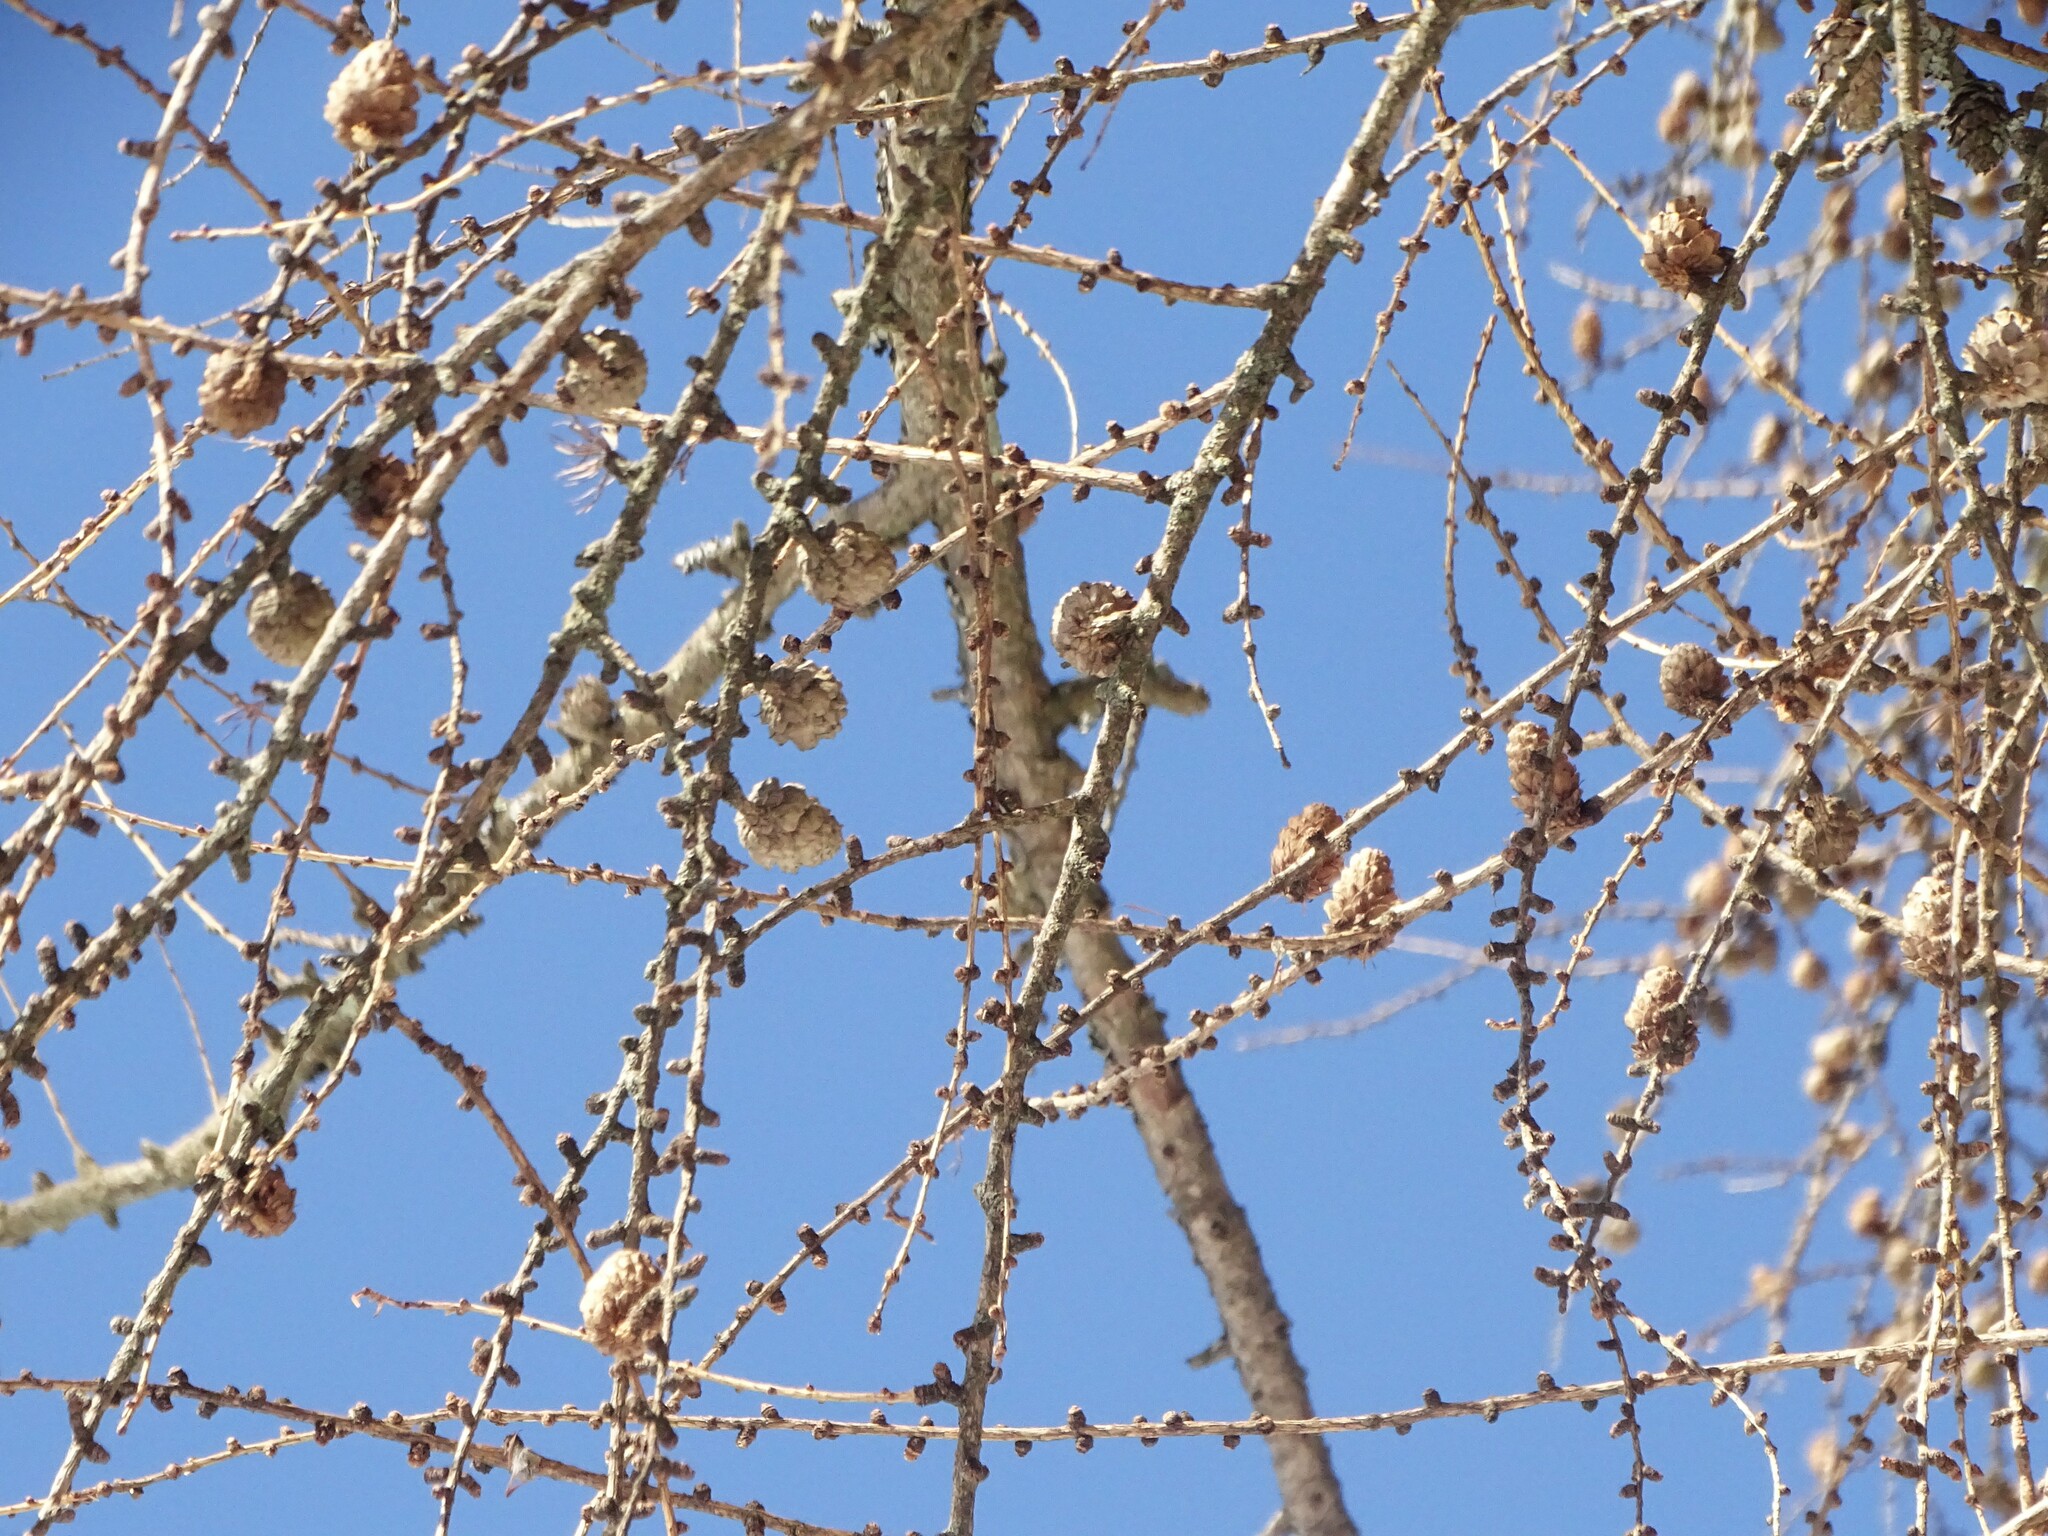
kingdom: Plantae
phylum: Tracheophyta
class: Pinopsida
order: Pinales
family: Pinaceae
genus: Larix
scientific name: Larix decidua
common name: European larch
